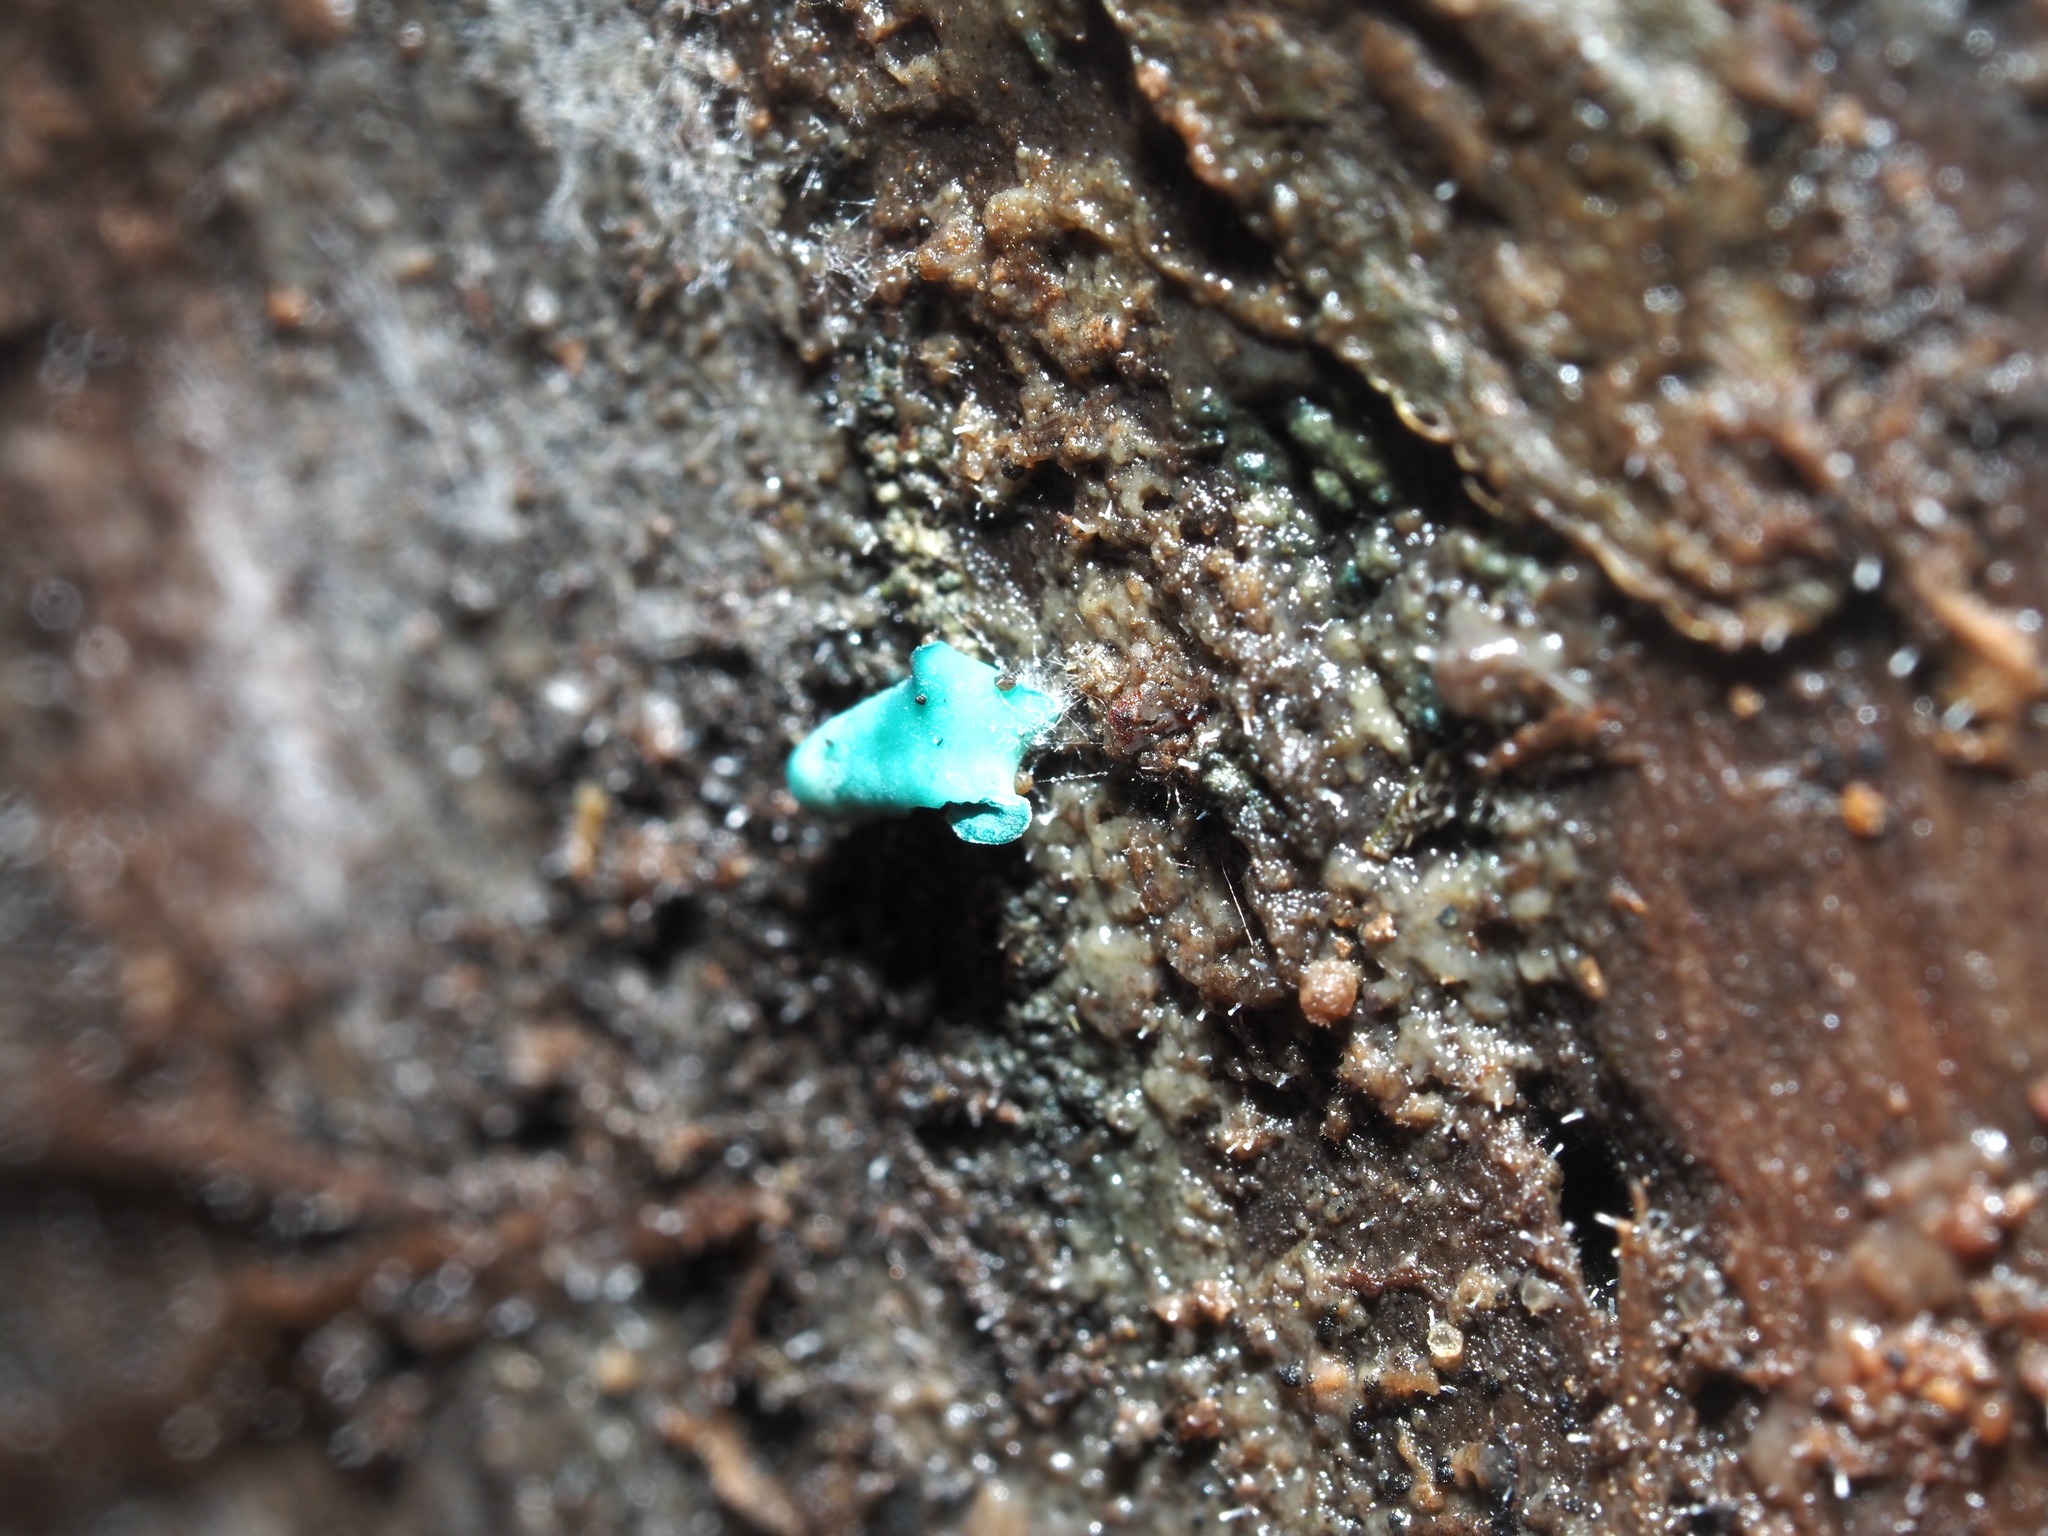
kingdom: Fungi
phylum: Ascomycota
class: Leotiomycetes
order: Helotiales
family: Chlorociboriaceae
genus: Chlorociboria
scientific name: Chlorociboria aeruginascens
